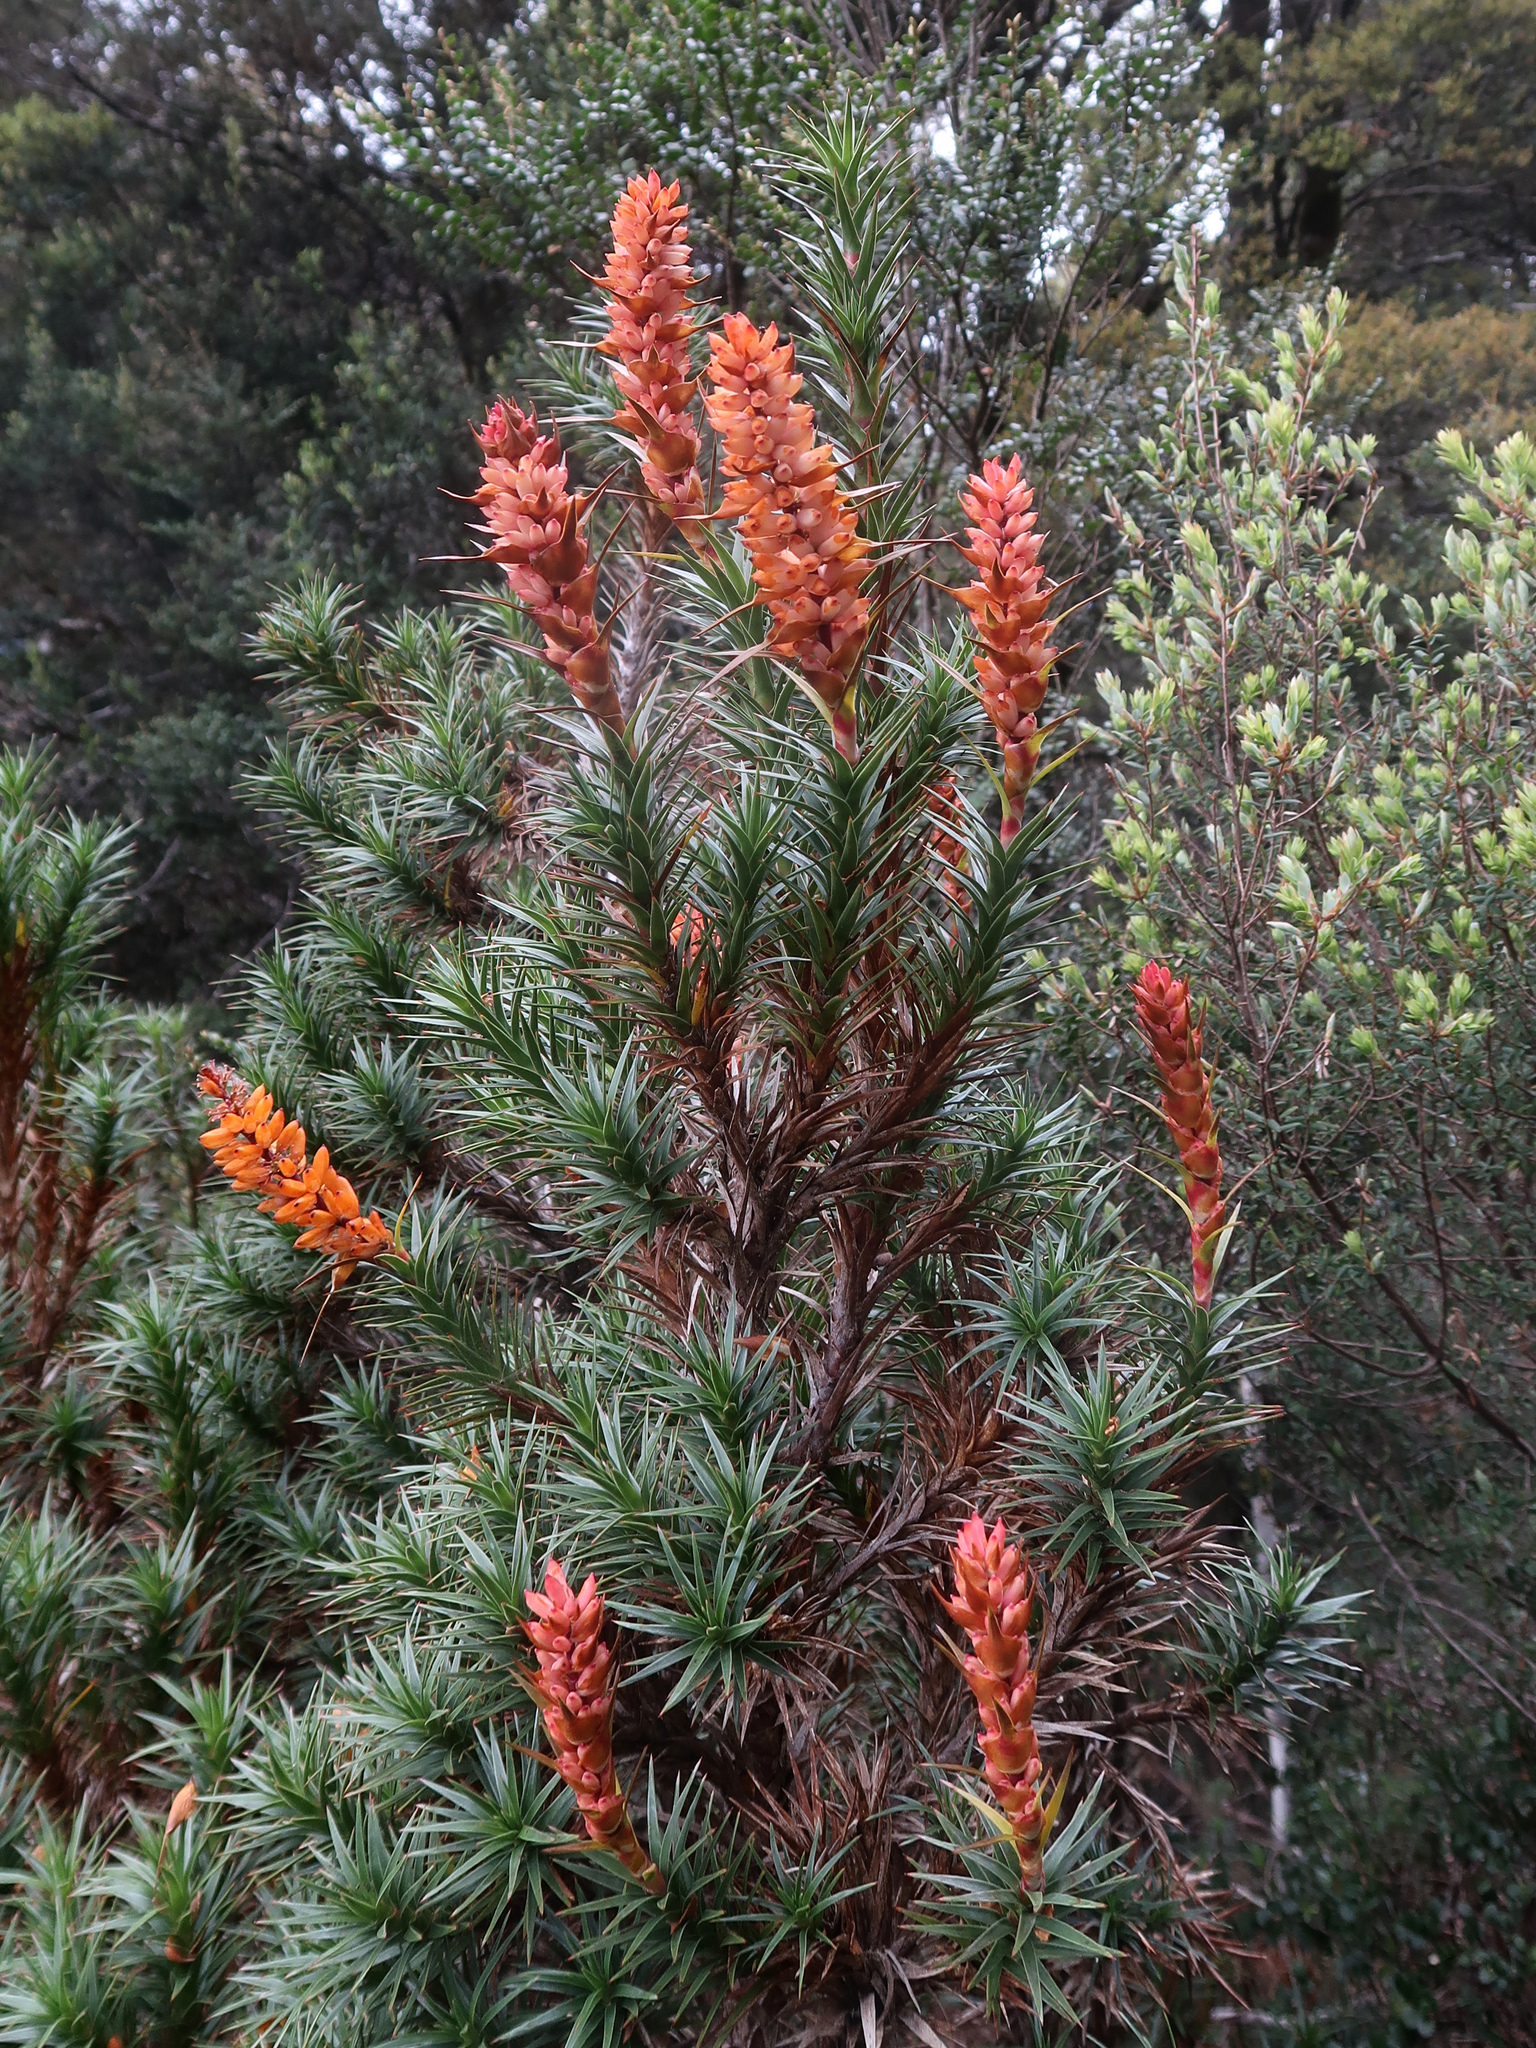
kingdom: Plantae
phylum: Tracheophyta
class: Magnoliopsida
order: Ericales
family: Ericaceae
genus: Dracophyllum
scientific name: Dracophyllum persistentifolium
